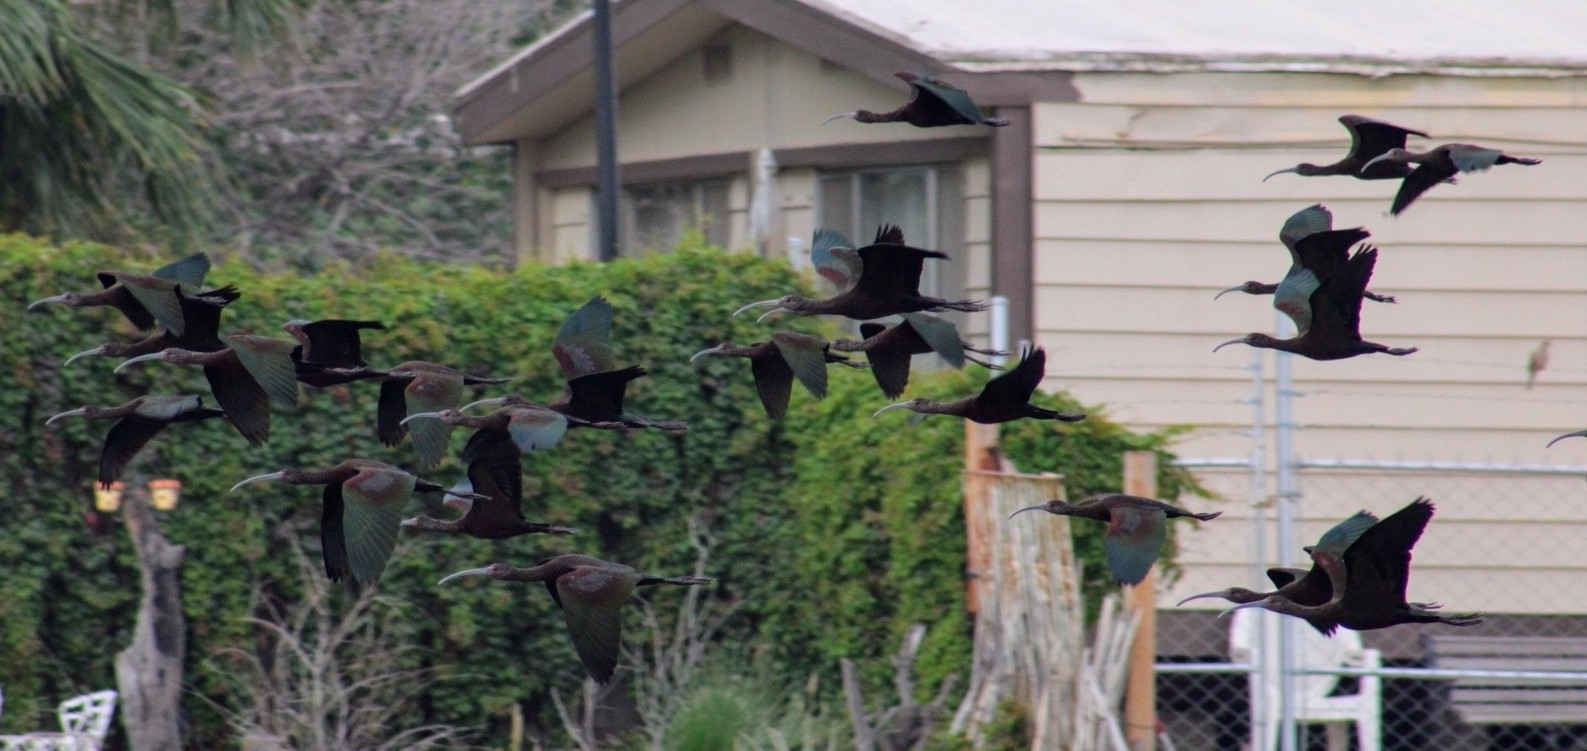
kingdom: Animalia
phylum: Chordata
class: Aves
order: Pelecaniformes
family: Threskiornithidae
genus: Plegadis
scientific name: Plegadis chihi
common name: White-faced ibis
